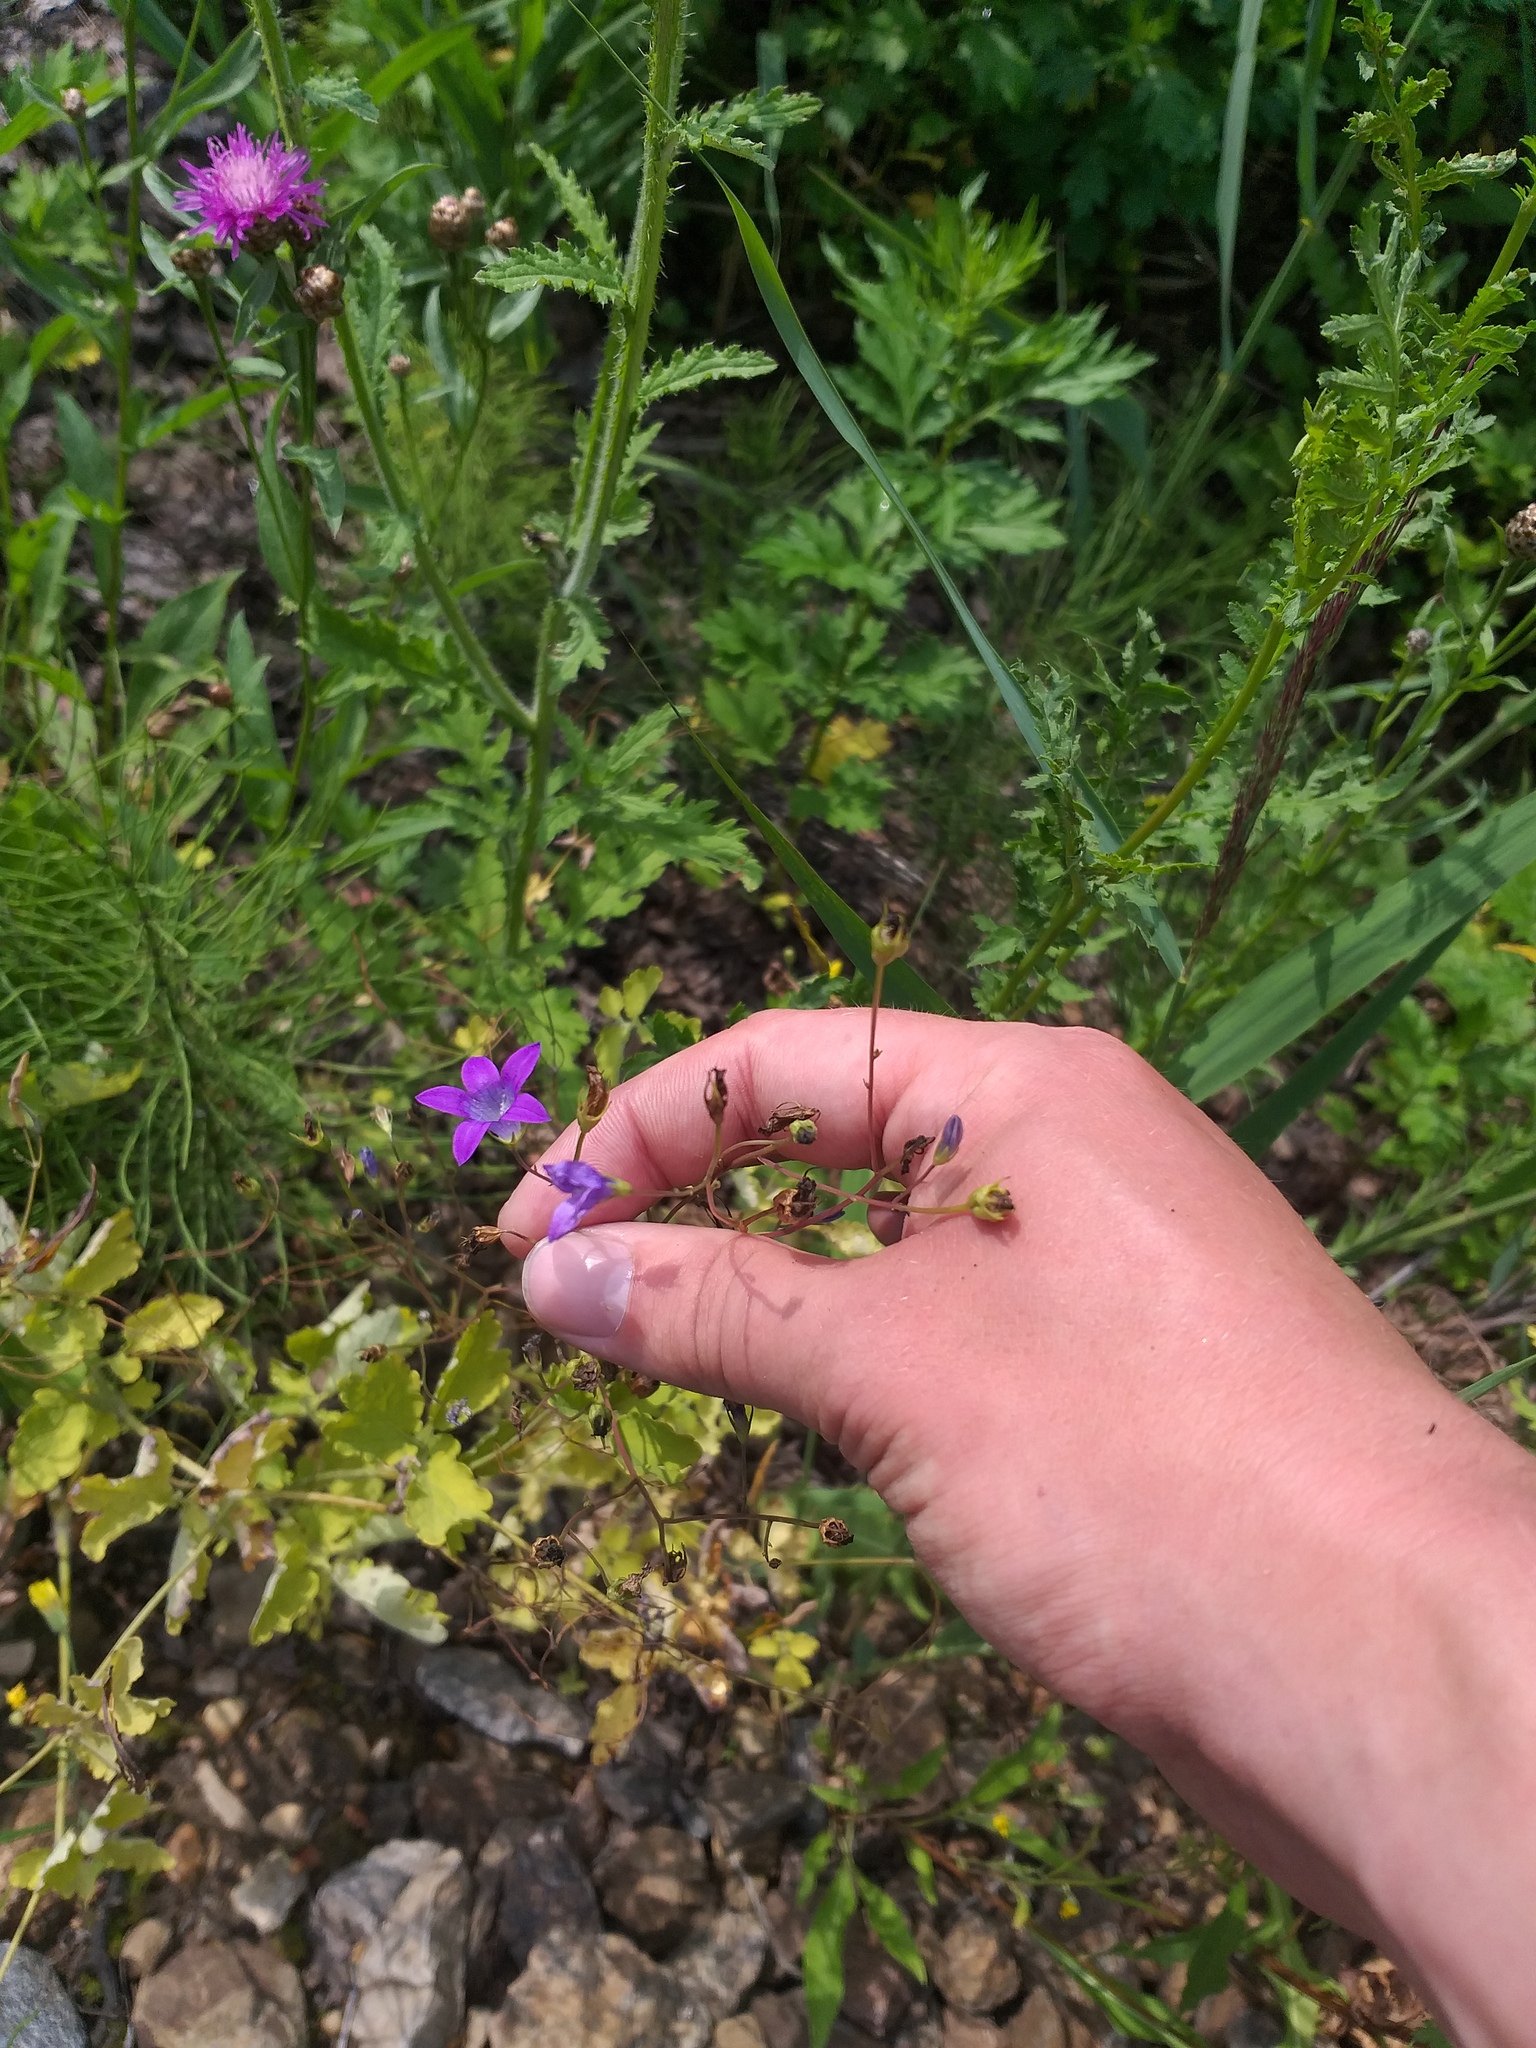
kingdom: Plantae
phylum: Tracheophyta
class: Magnoliopsida
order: Asterales
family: Campanulaceae
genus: Campanula
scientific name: Campanula patula
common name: Spreading bellflower
